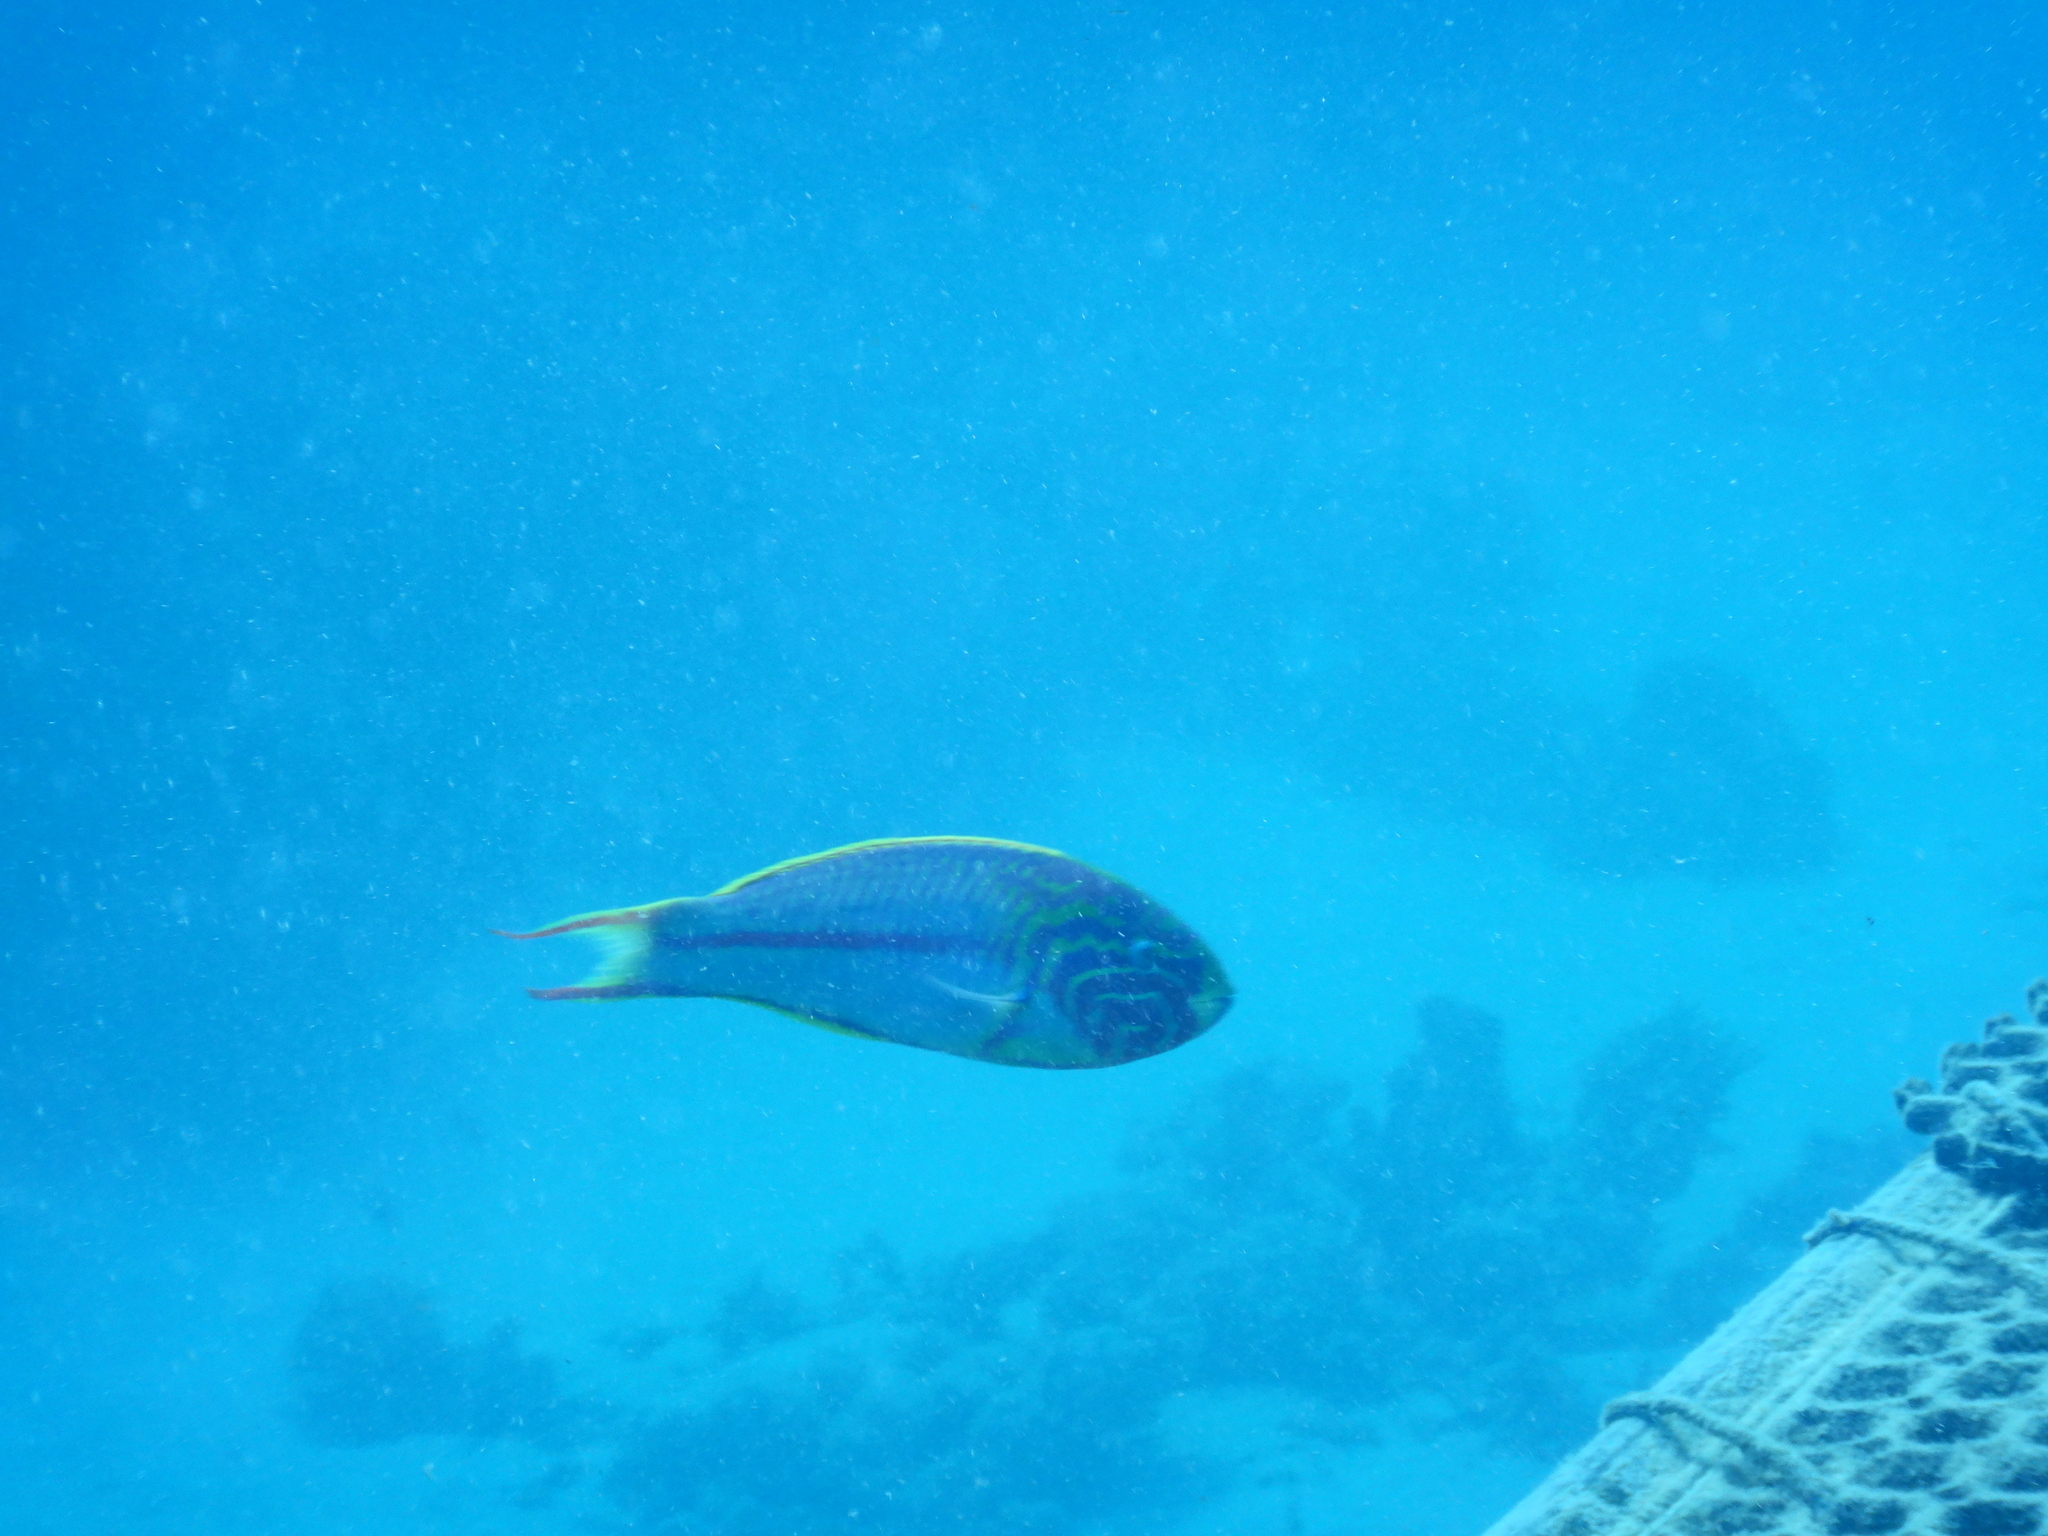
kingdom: Animalia
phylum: Chordata
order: Perciformes
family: Labridae
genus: Thalassoma
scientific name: Thalassoma rueppellii
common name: Klunzinger's wrasse
